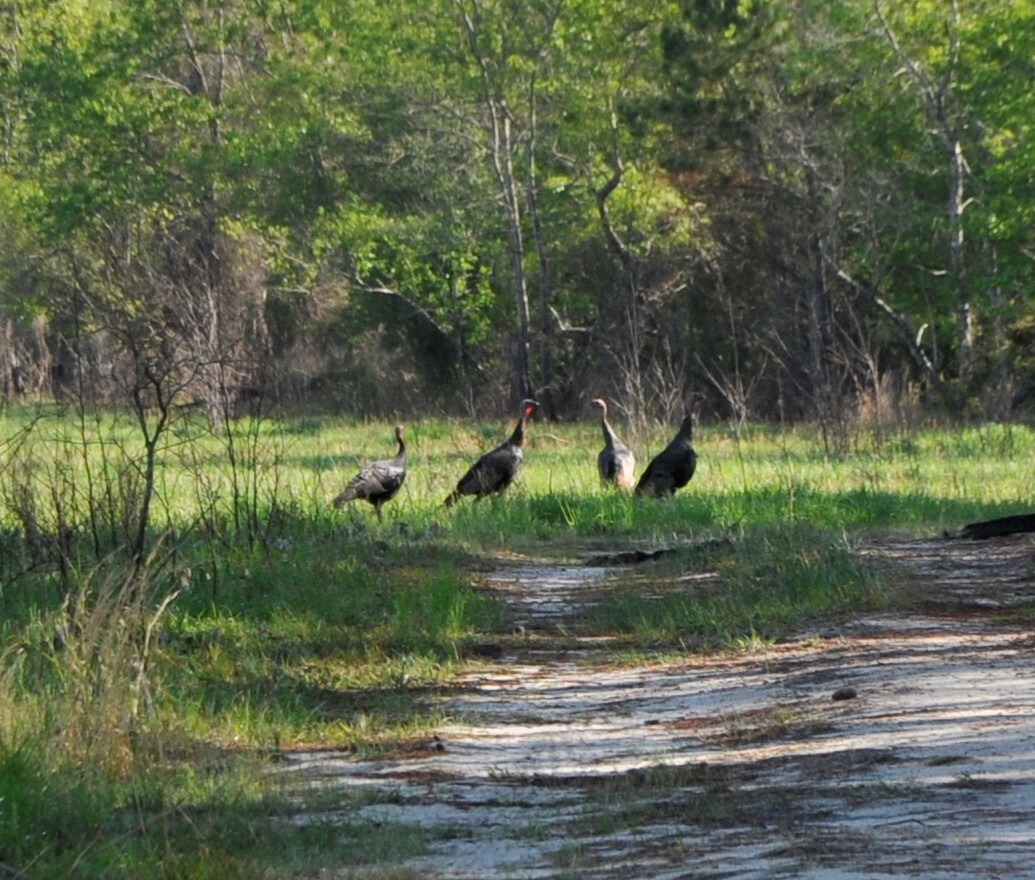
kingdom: Animalia
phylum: Chordata
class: Aves
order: Galliformes
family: Phasianidae
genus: Meleagris
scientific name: Meleagris gallopavo
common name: Wild turkey
